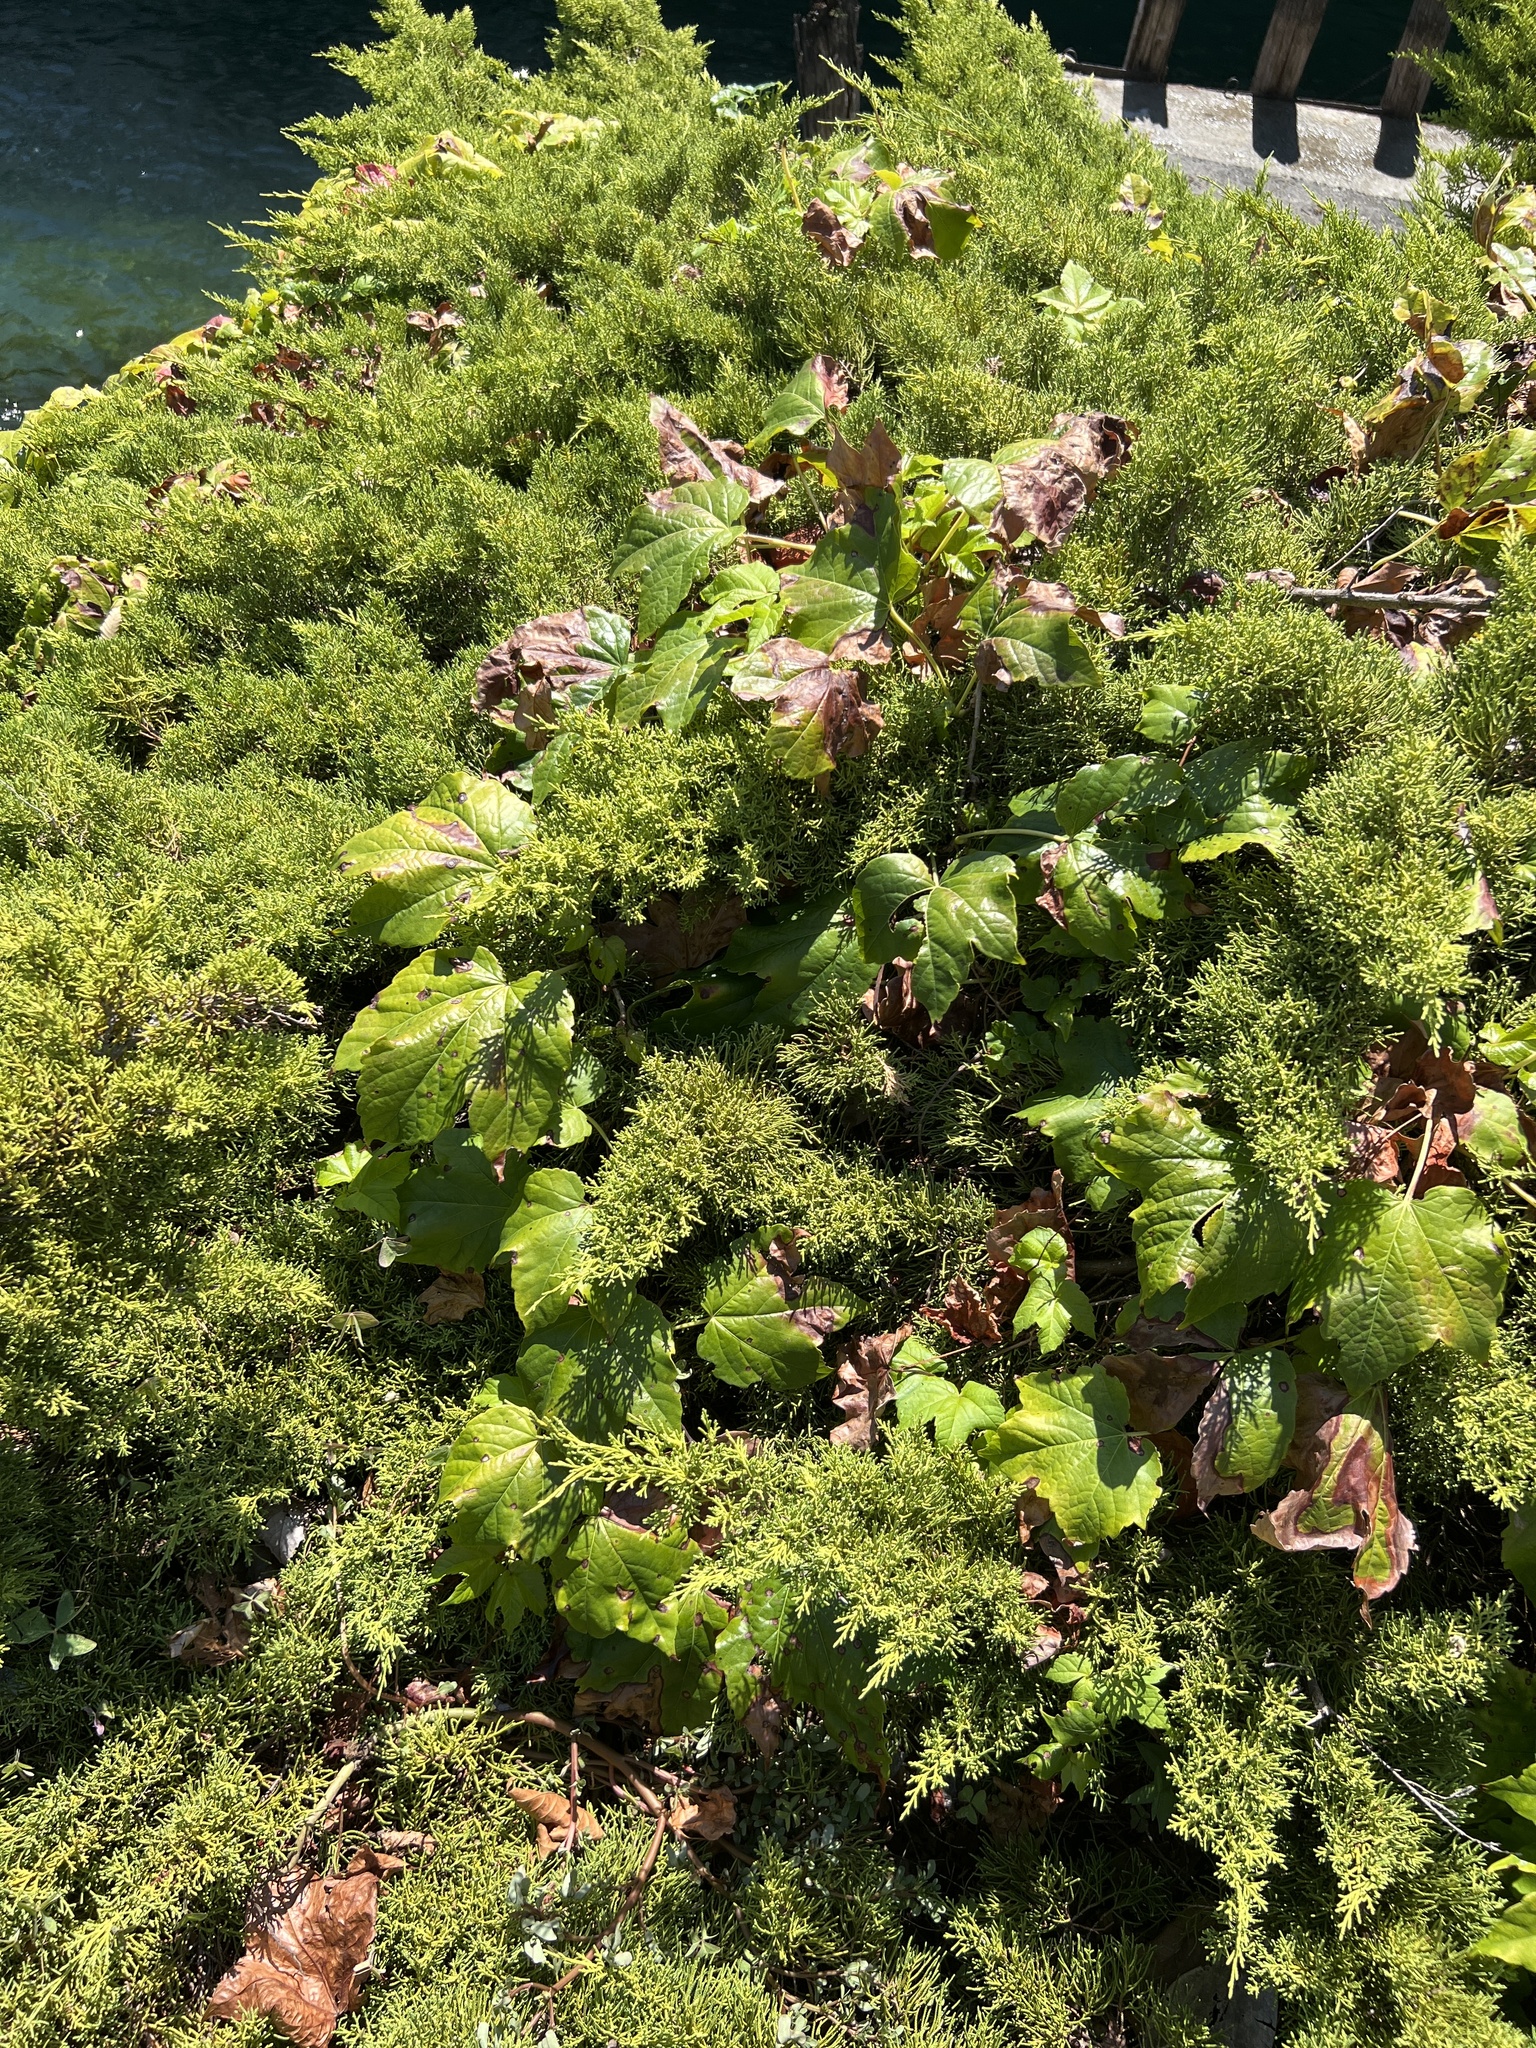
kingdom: Plantae
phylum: Tracheophyta
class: Magnoliopsida
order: Vitales
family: Vitaceae
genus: Parthenocissus
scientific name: Parthenocissus tricuspidata
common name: Boston ivy
